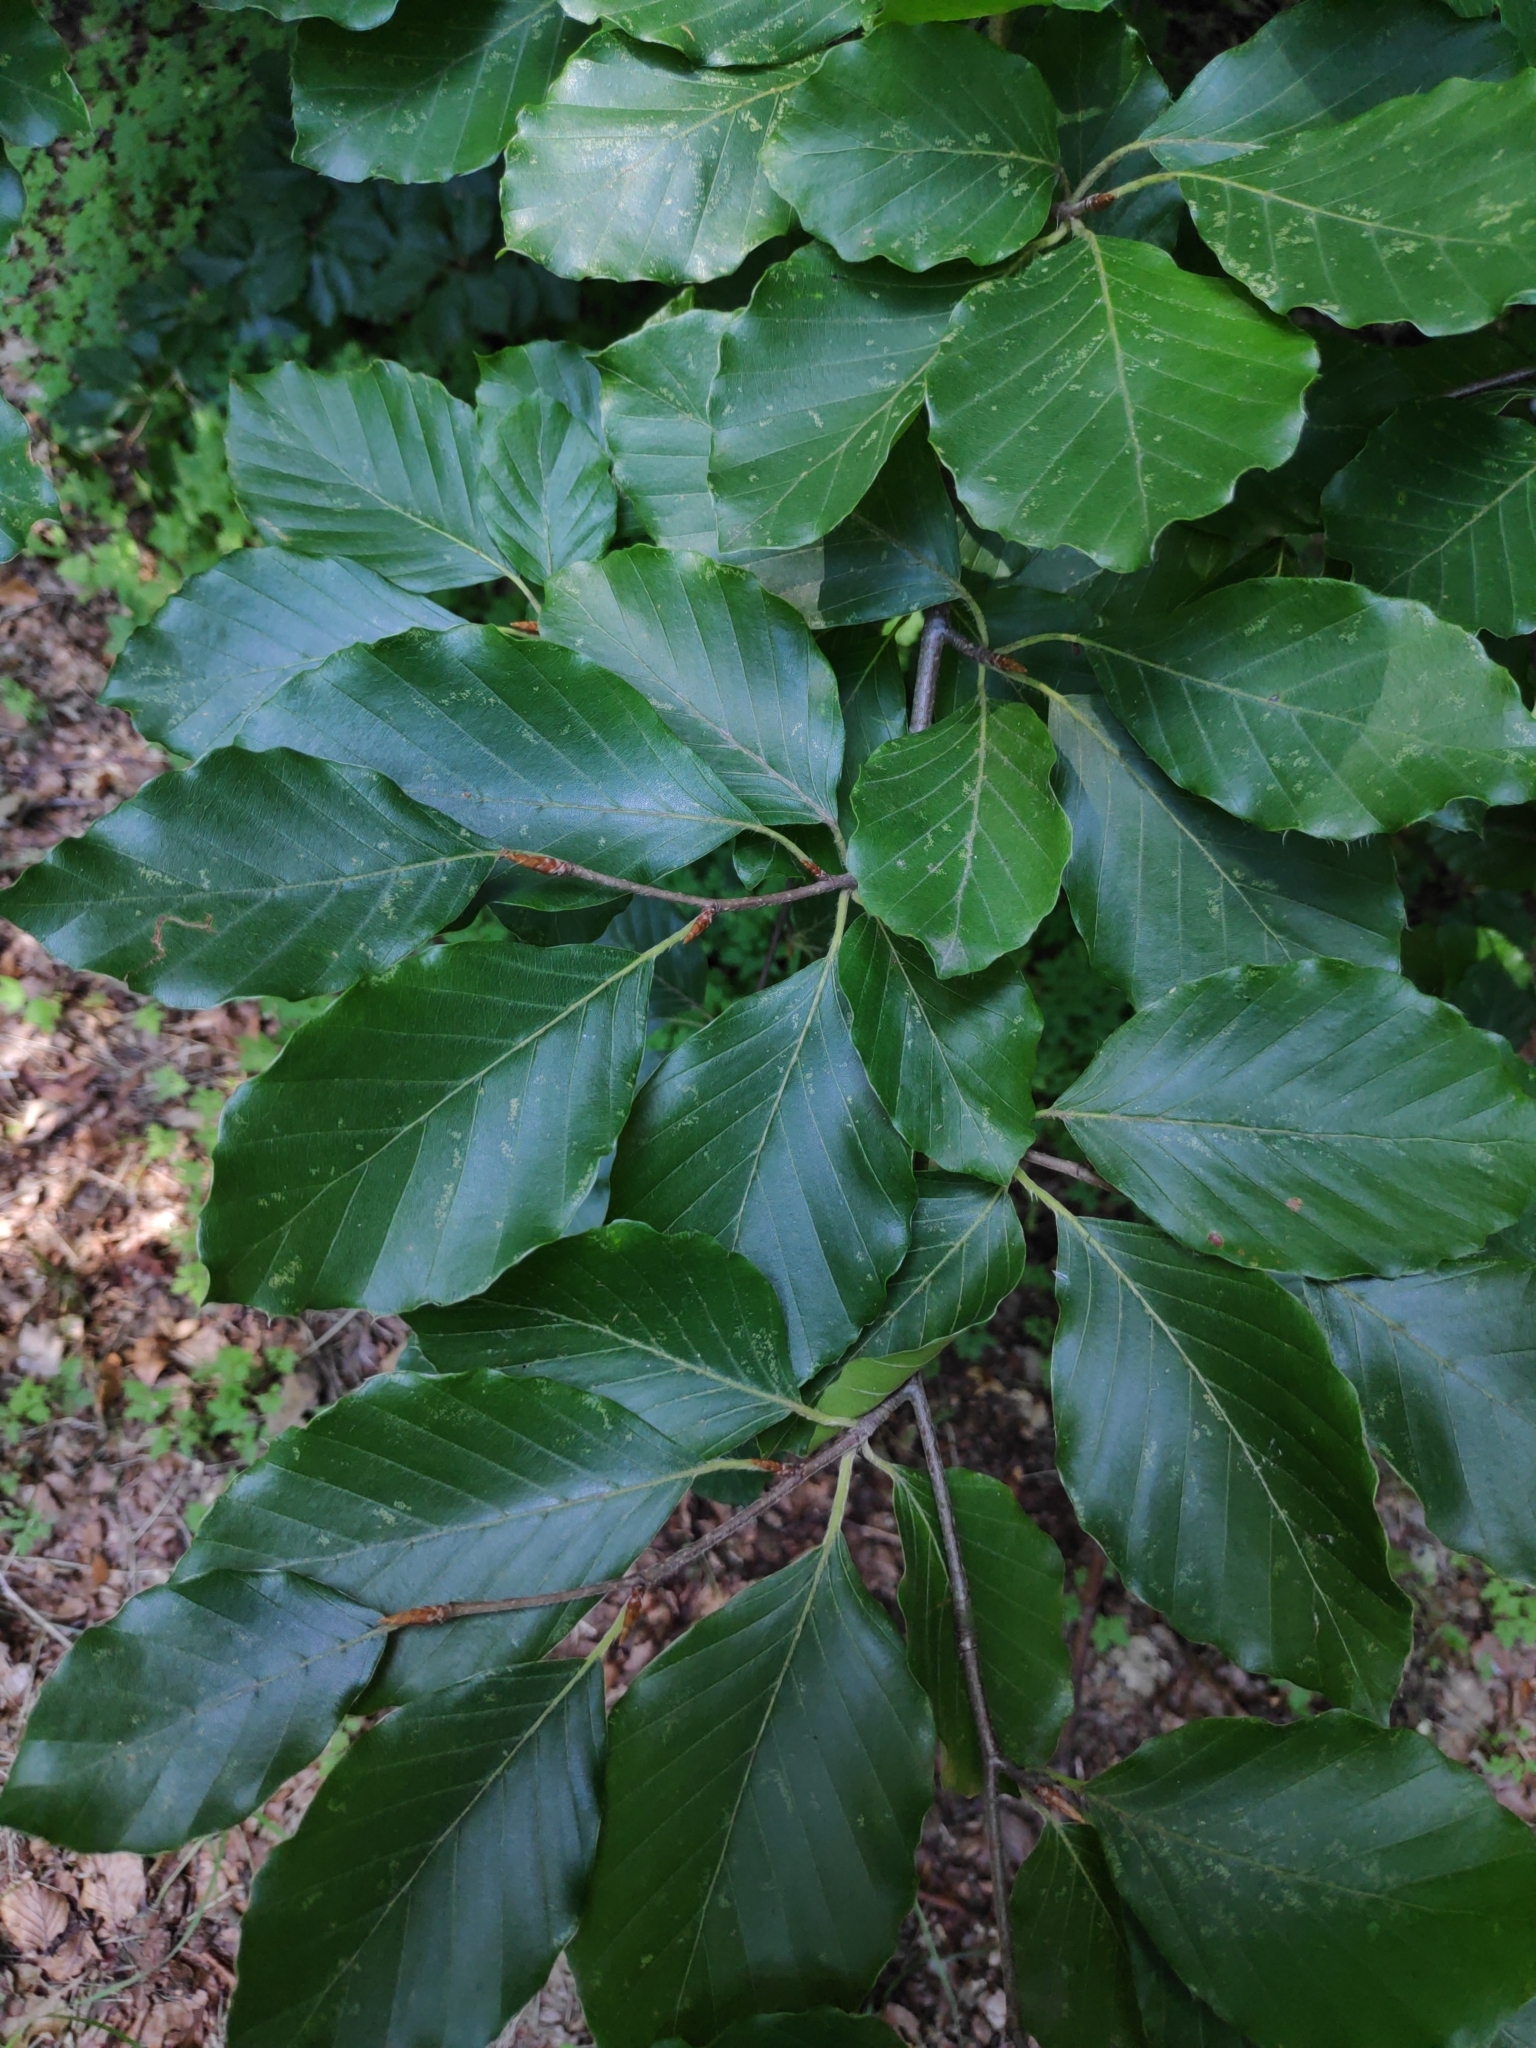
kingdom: Plantae
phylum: Tracheophyta
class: Magnoliopsida
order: Fagales
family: Fagaceae
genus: Fagus
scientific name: Fagus sylvatica
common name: Beech
